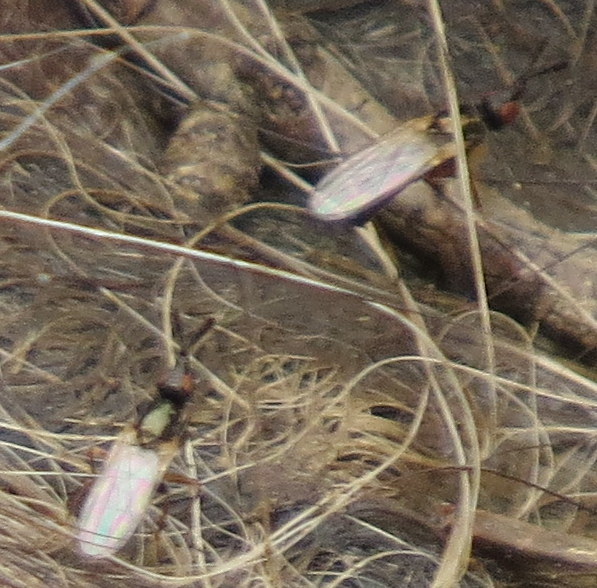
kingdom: Animalia
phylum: Arthropoda
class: Insecta
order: Diptera
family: Piophilidae
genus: Prochyliza
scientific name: Prochyliza xanthostoma
